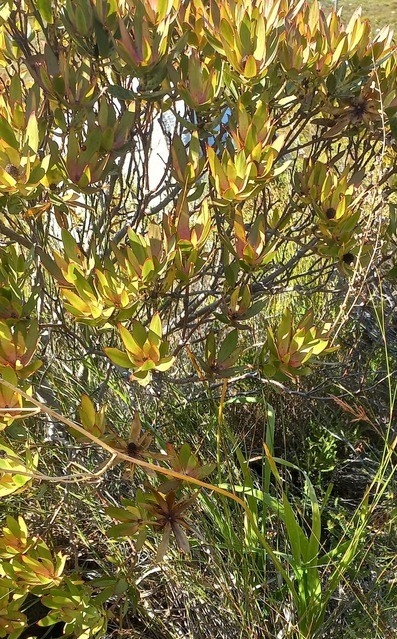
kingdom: Plantae
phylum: Tracheophyta
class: Magnoliopsida
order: Proteales
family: Proteaceae
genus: Leucadendron
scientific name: Leucadendron gandogeri
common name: Broad-leaf conebush
